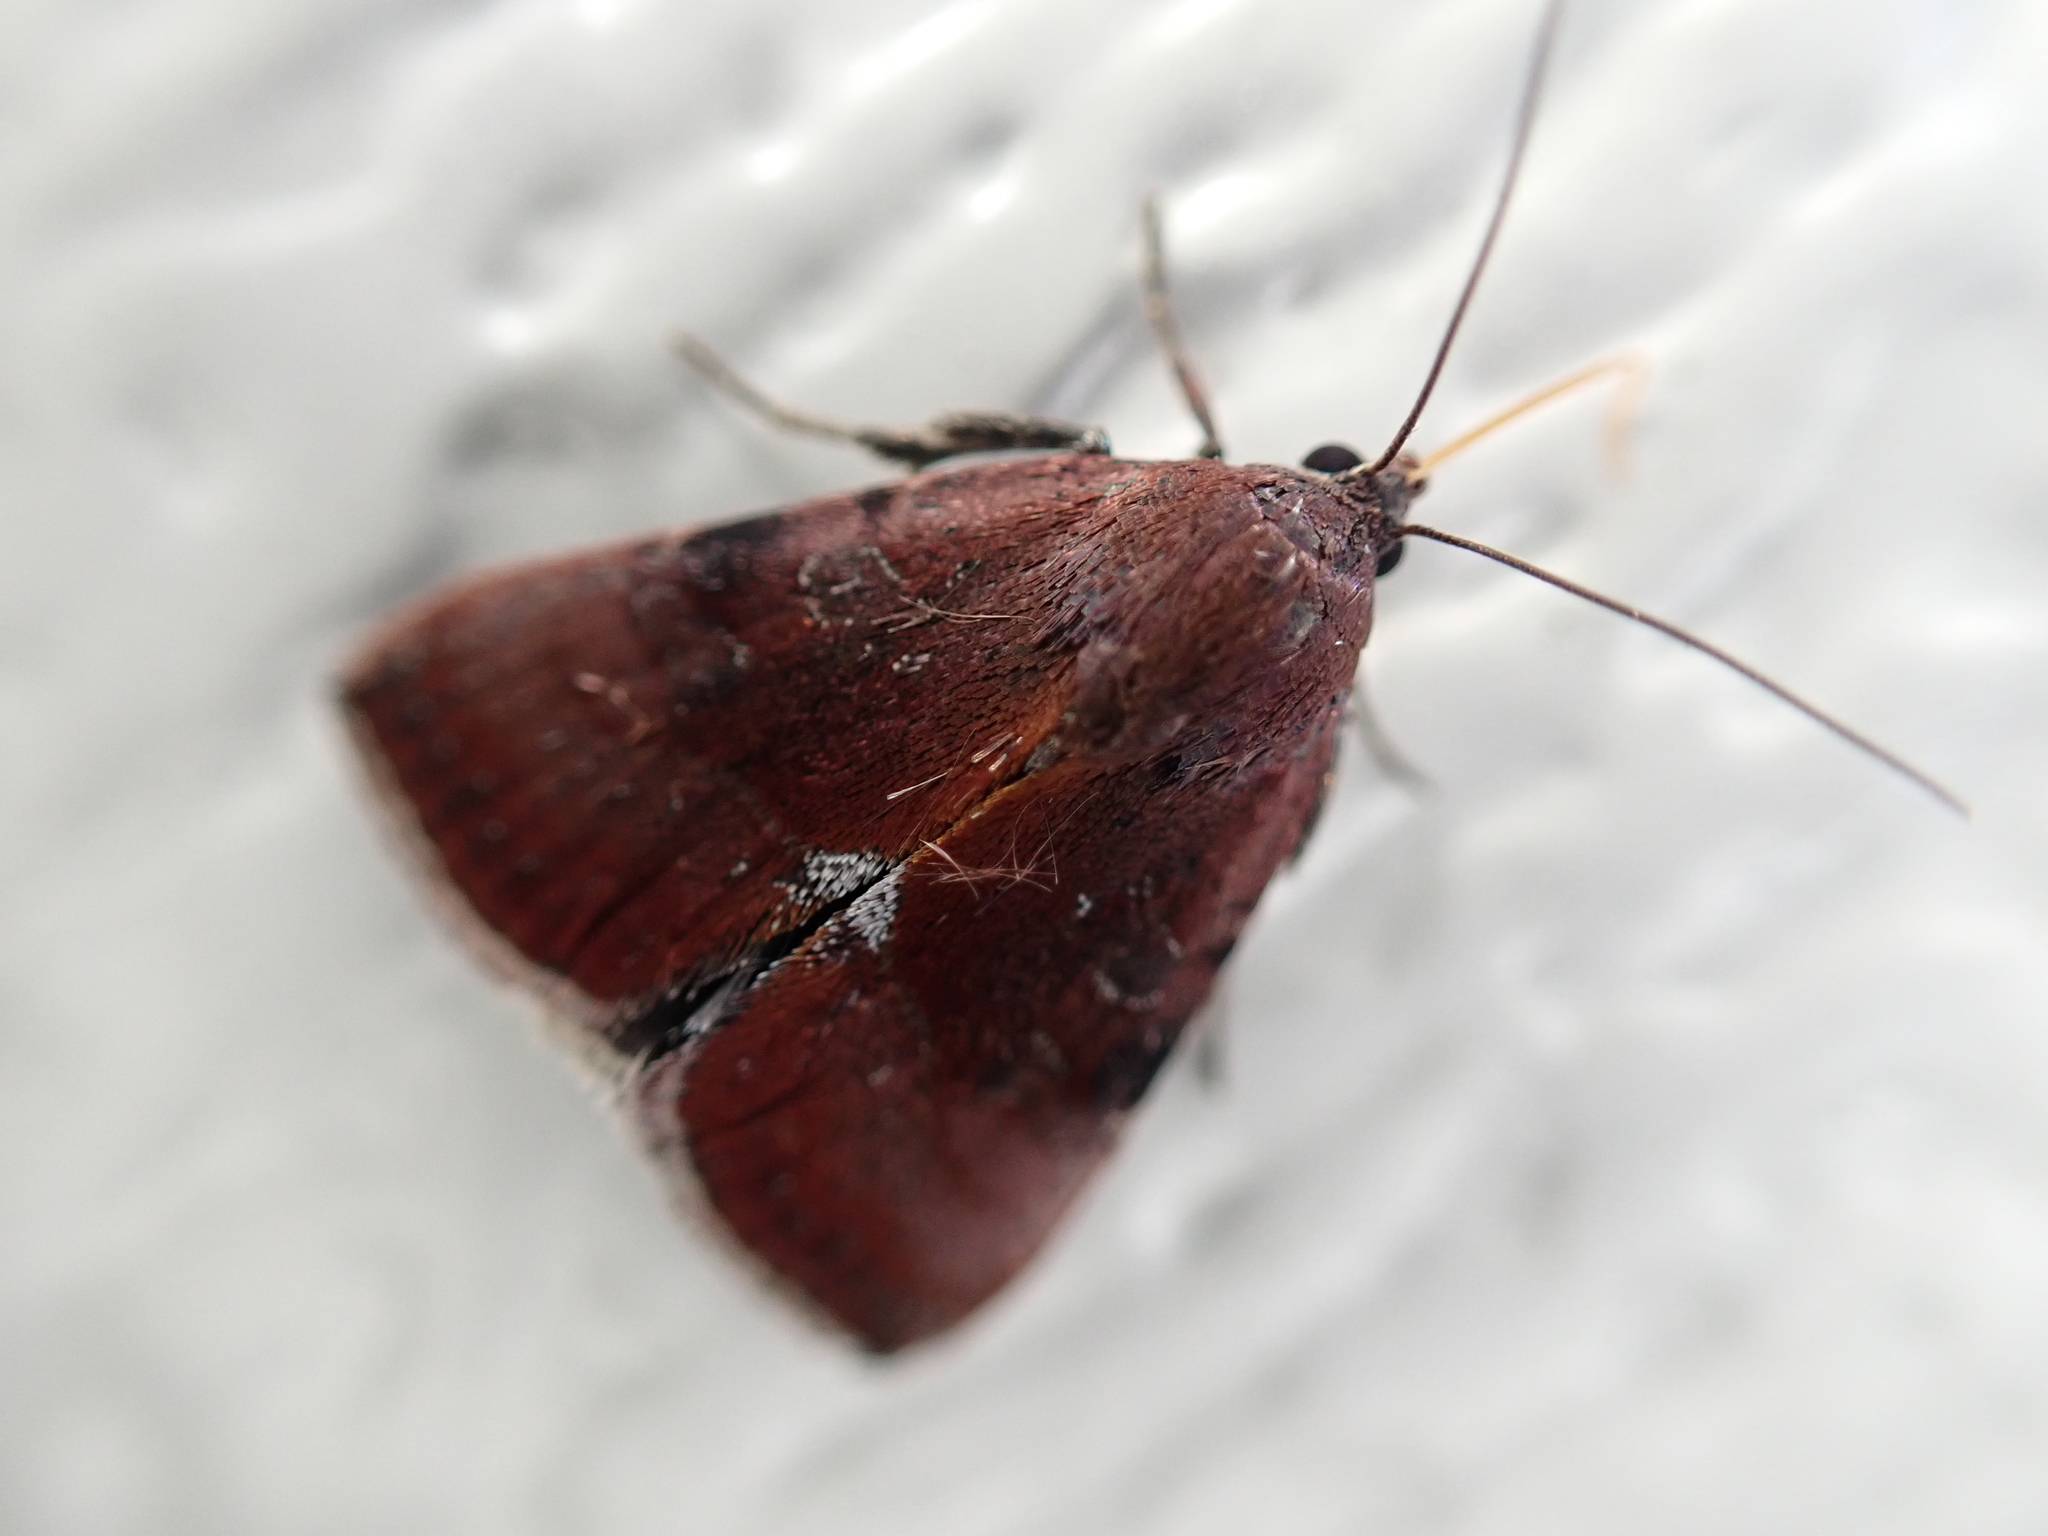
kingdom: Animalia
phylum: Arthropoda
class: Insecta
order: Lepidoptera
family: Noctuidae
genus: Galgula
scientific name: Galgula partita
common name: Wedgeling
